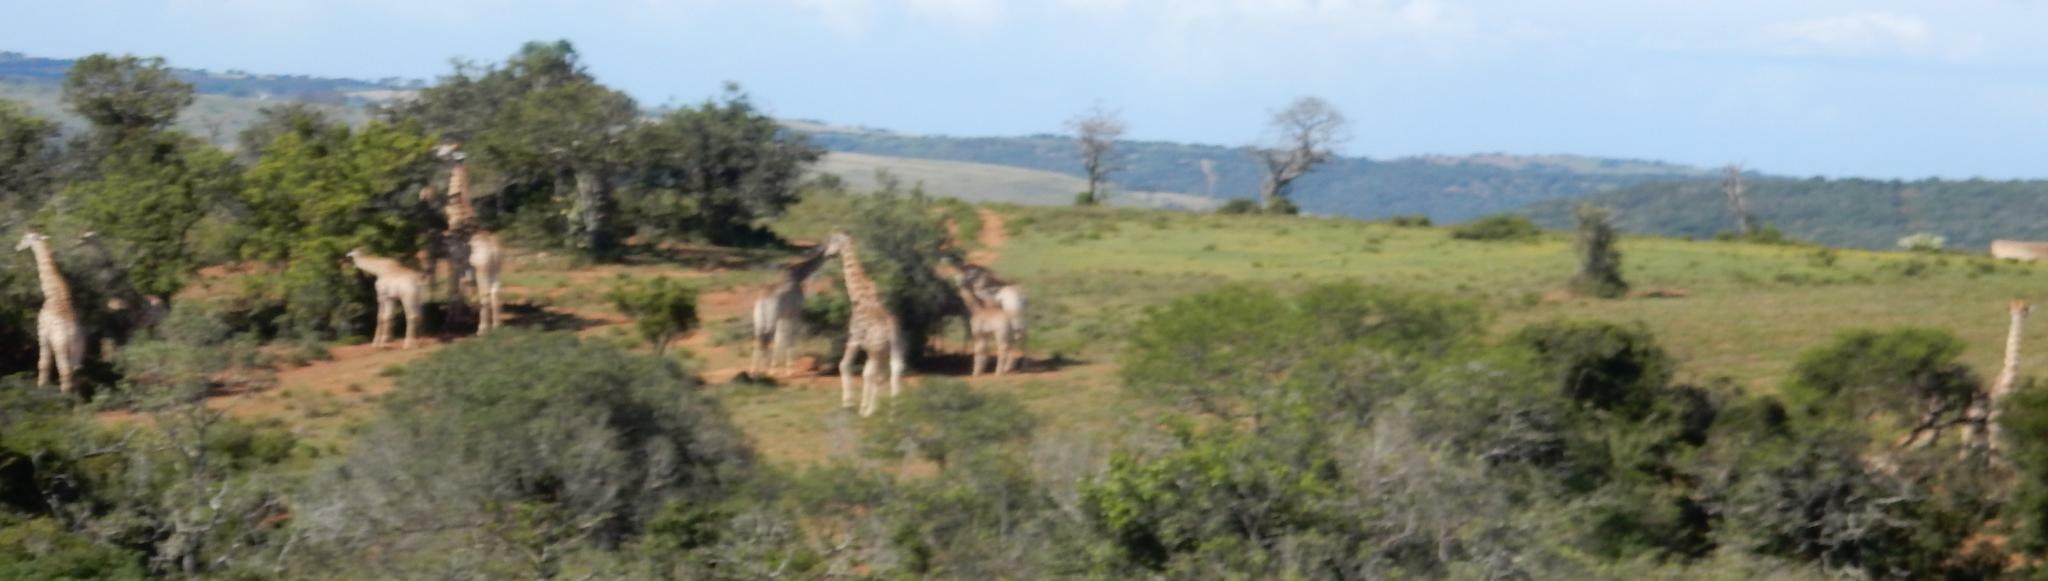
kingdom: Animalia
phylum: Chordata
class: Mammalia
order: Artiodactyla
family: Giraffidae
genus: Giraffa
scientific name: Giraffa giraffa
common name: Southern giraffe
